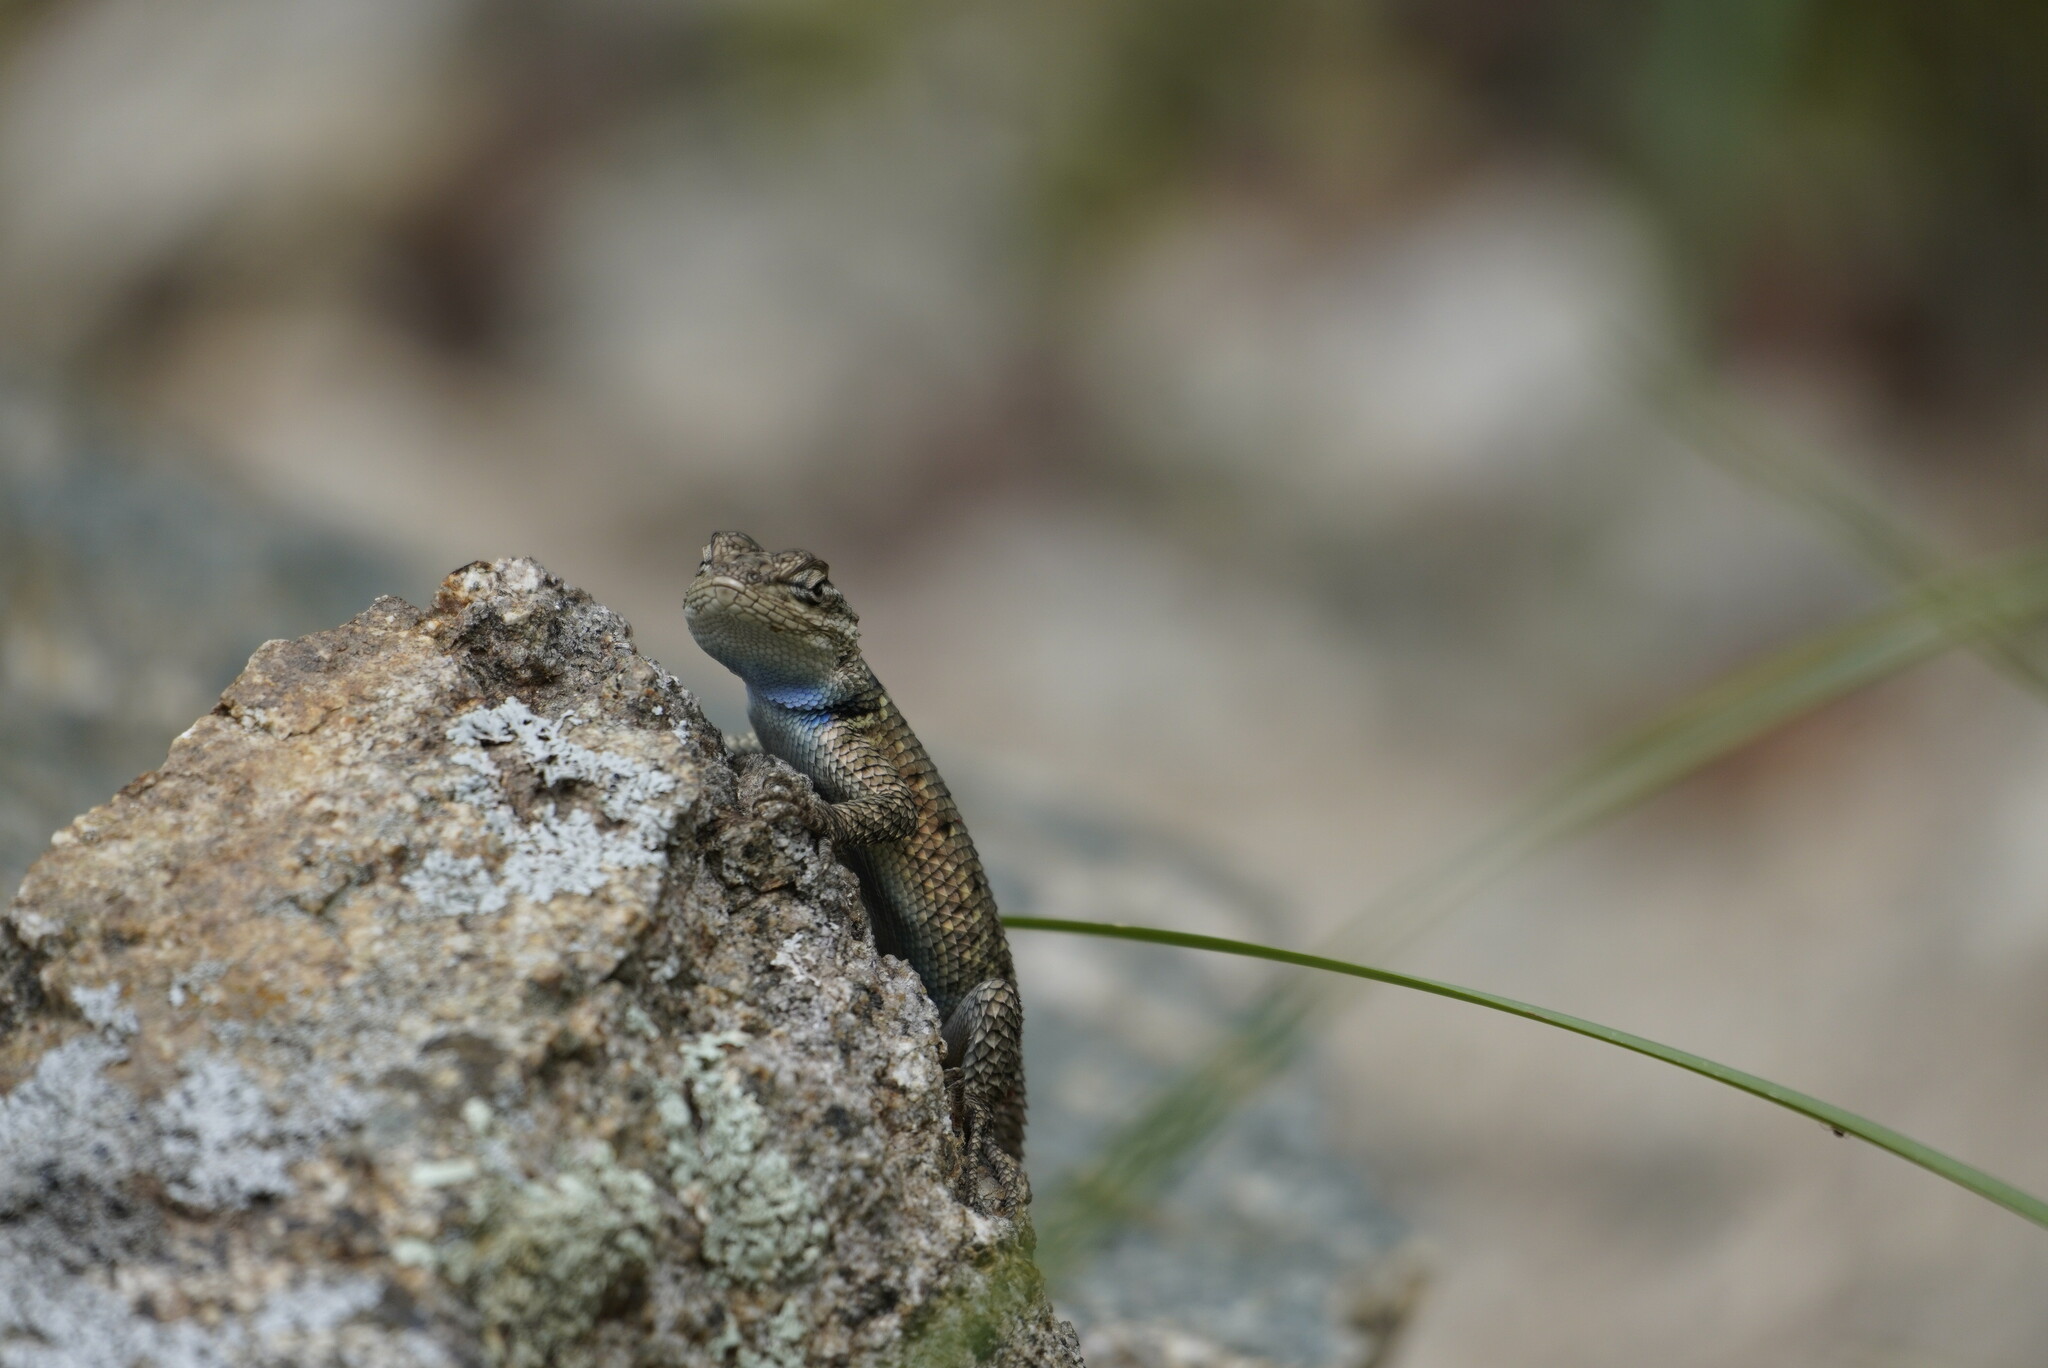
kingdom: Animalia
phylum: Chordata
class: Squamata
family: Phrynosomatidae
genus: Sceloporus
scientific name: Sceloporus jarrovii
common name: Yarrow's spiny lizard
